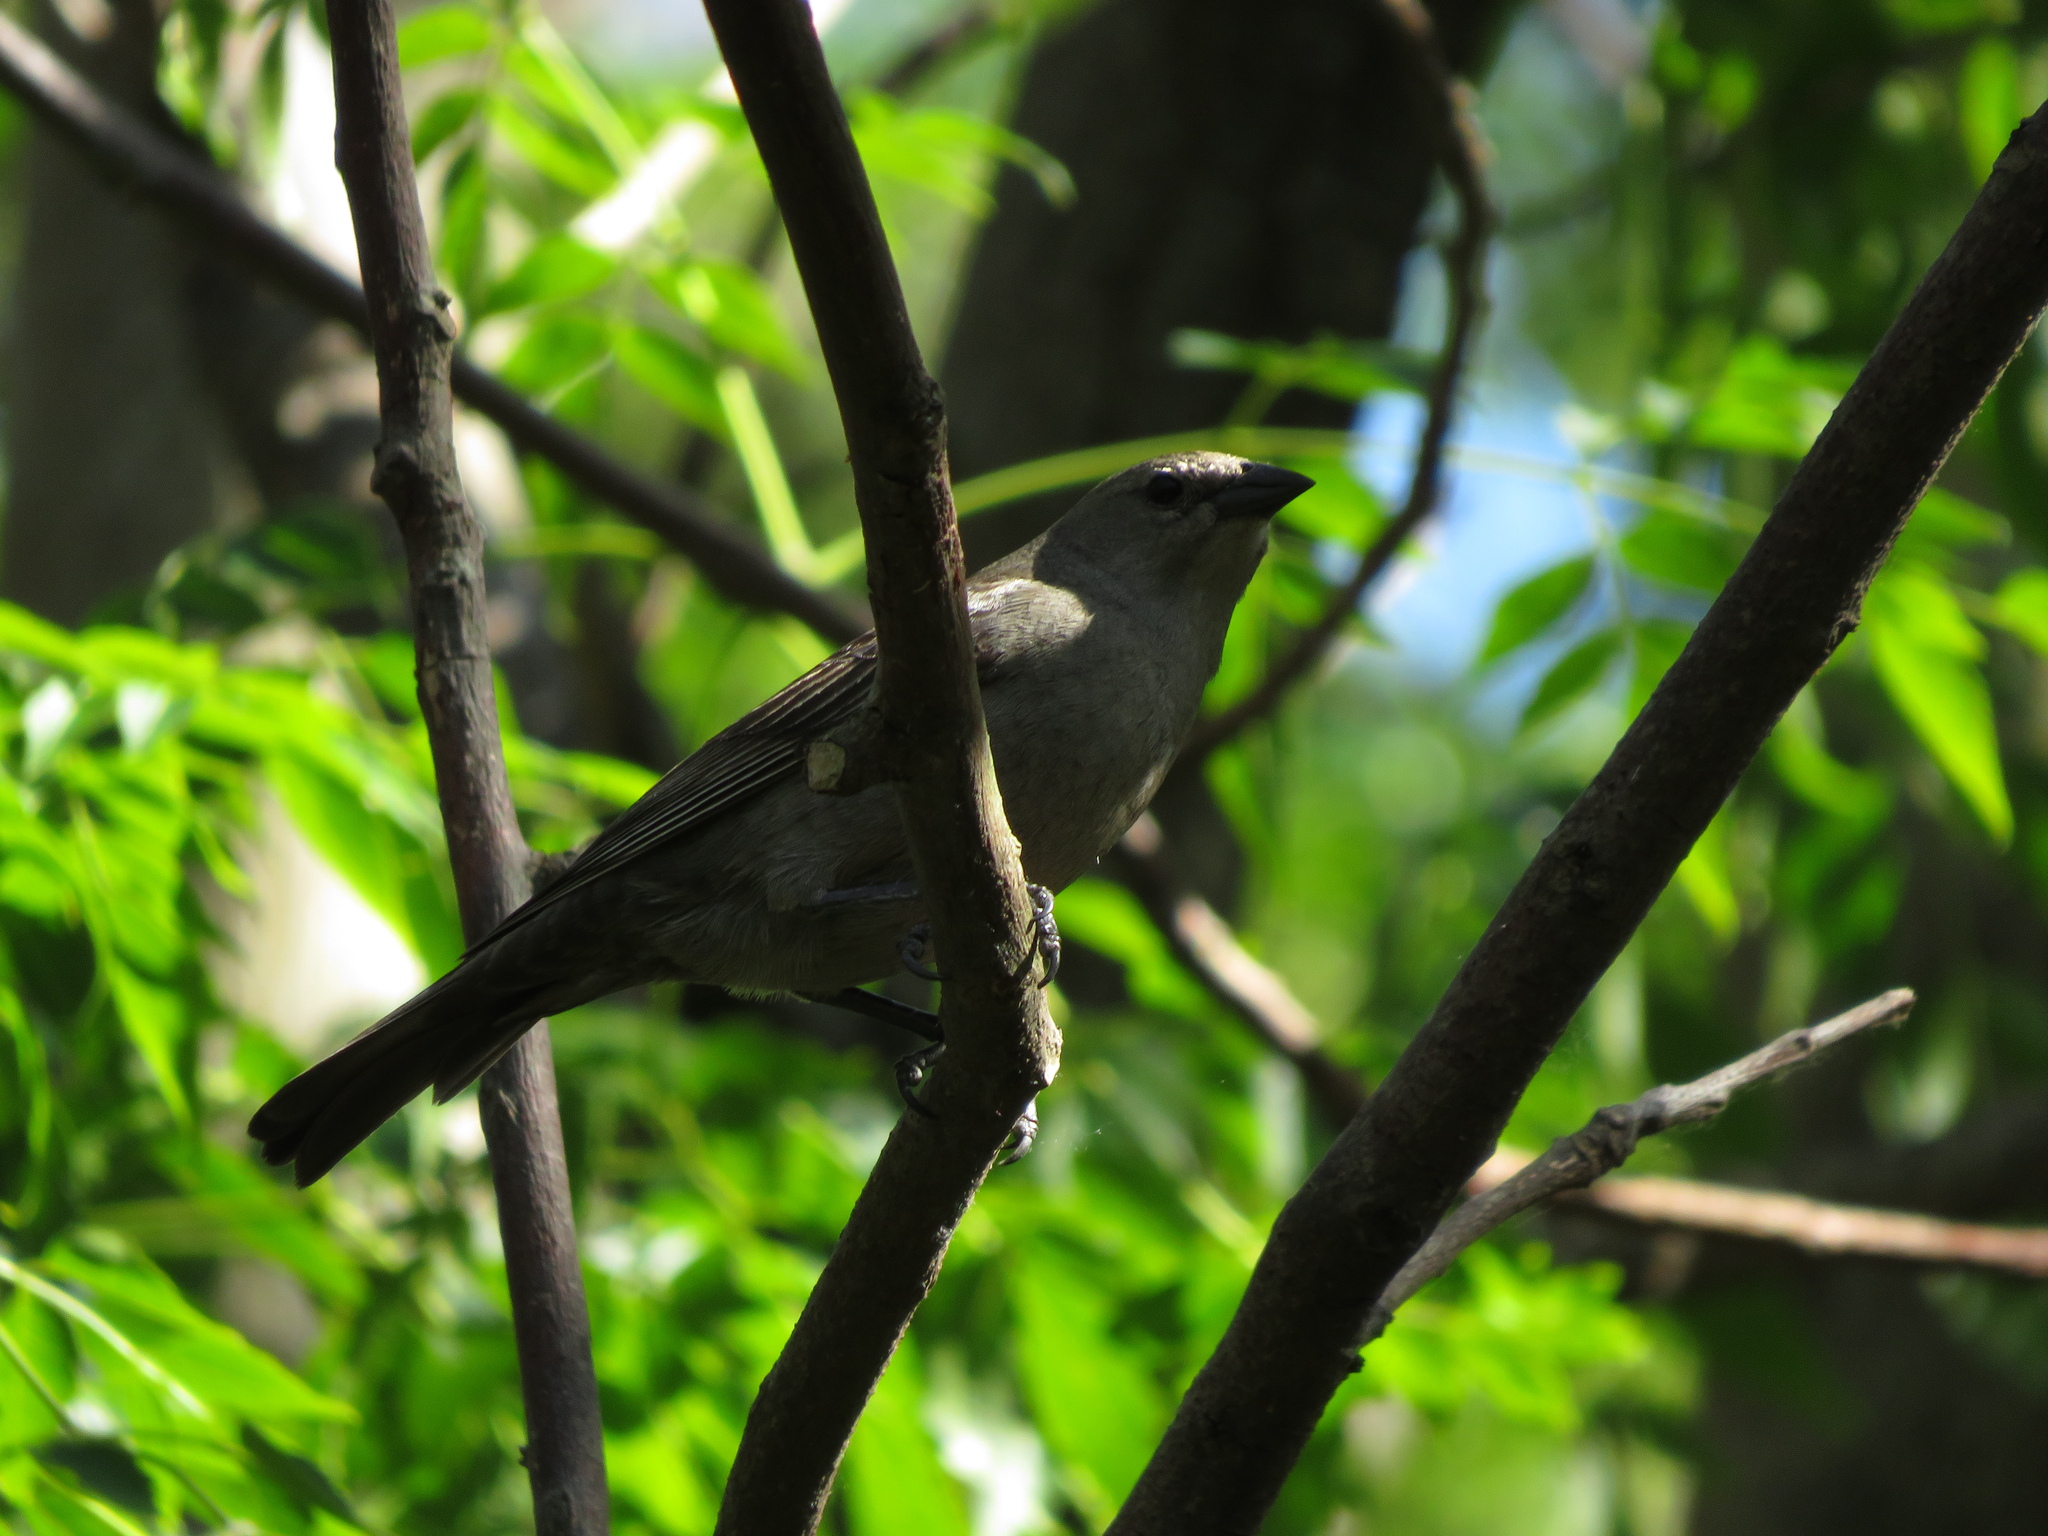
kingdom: Animalia
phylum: Chordata
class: Aves
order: Passeriformes
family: Icteridae
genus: Molothrus
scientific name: Molothrus bonariensis
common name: Shiny cowbird
